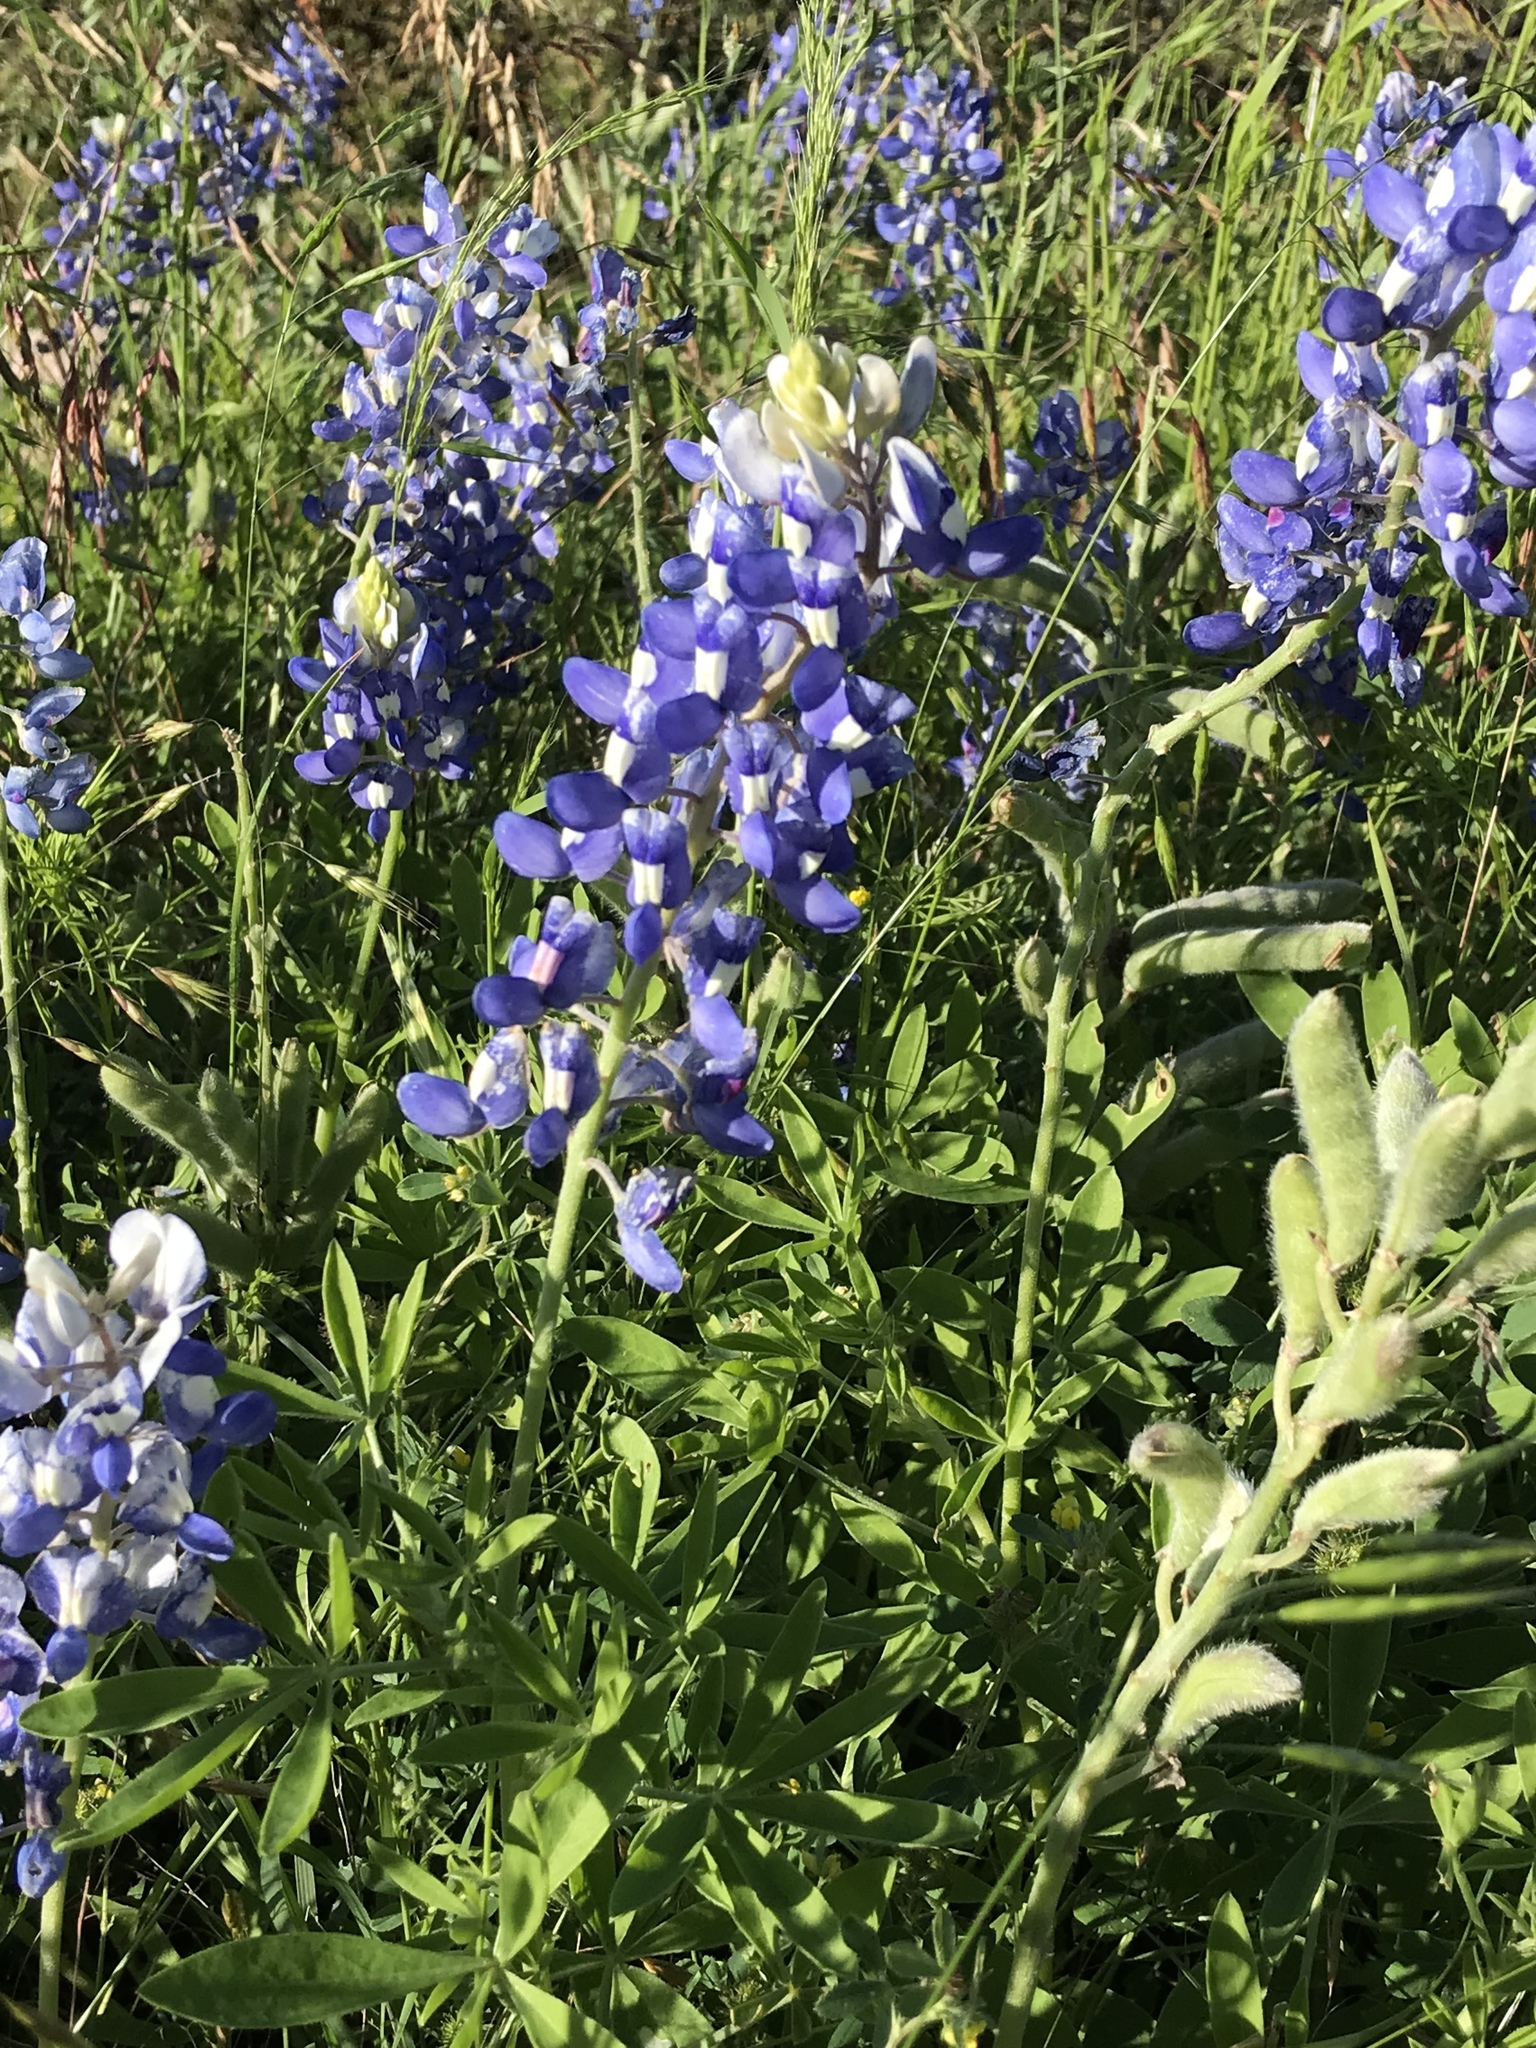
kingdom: Plantae
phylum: Tracheophyta
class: Magnoliopsida
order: Fabales
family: Fabaceae
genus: Lupinus
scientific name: Lupinus texensis
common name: Texas bluebonnet
